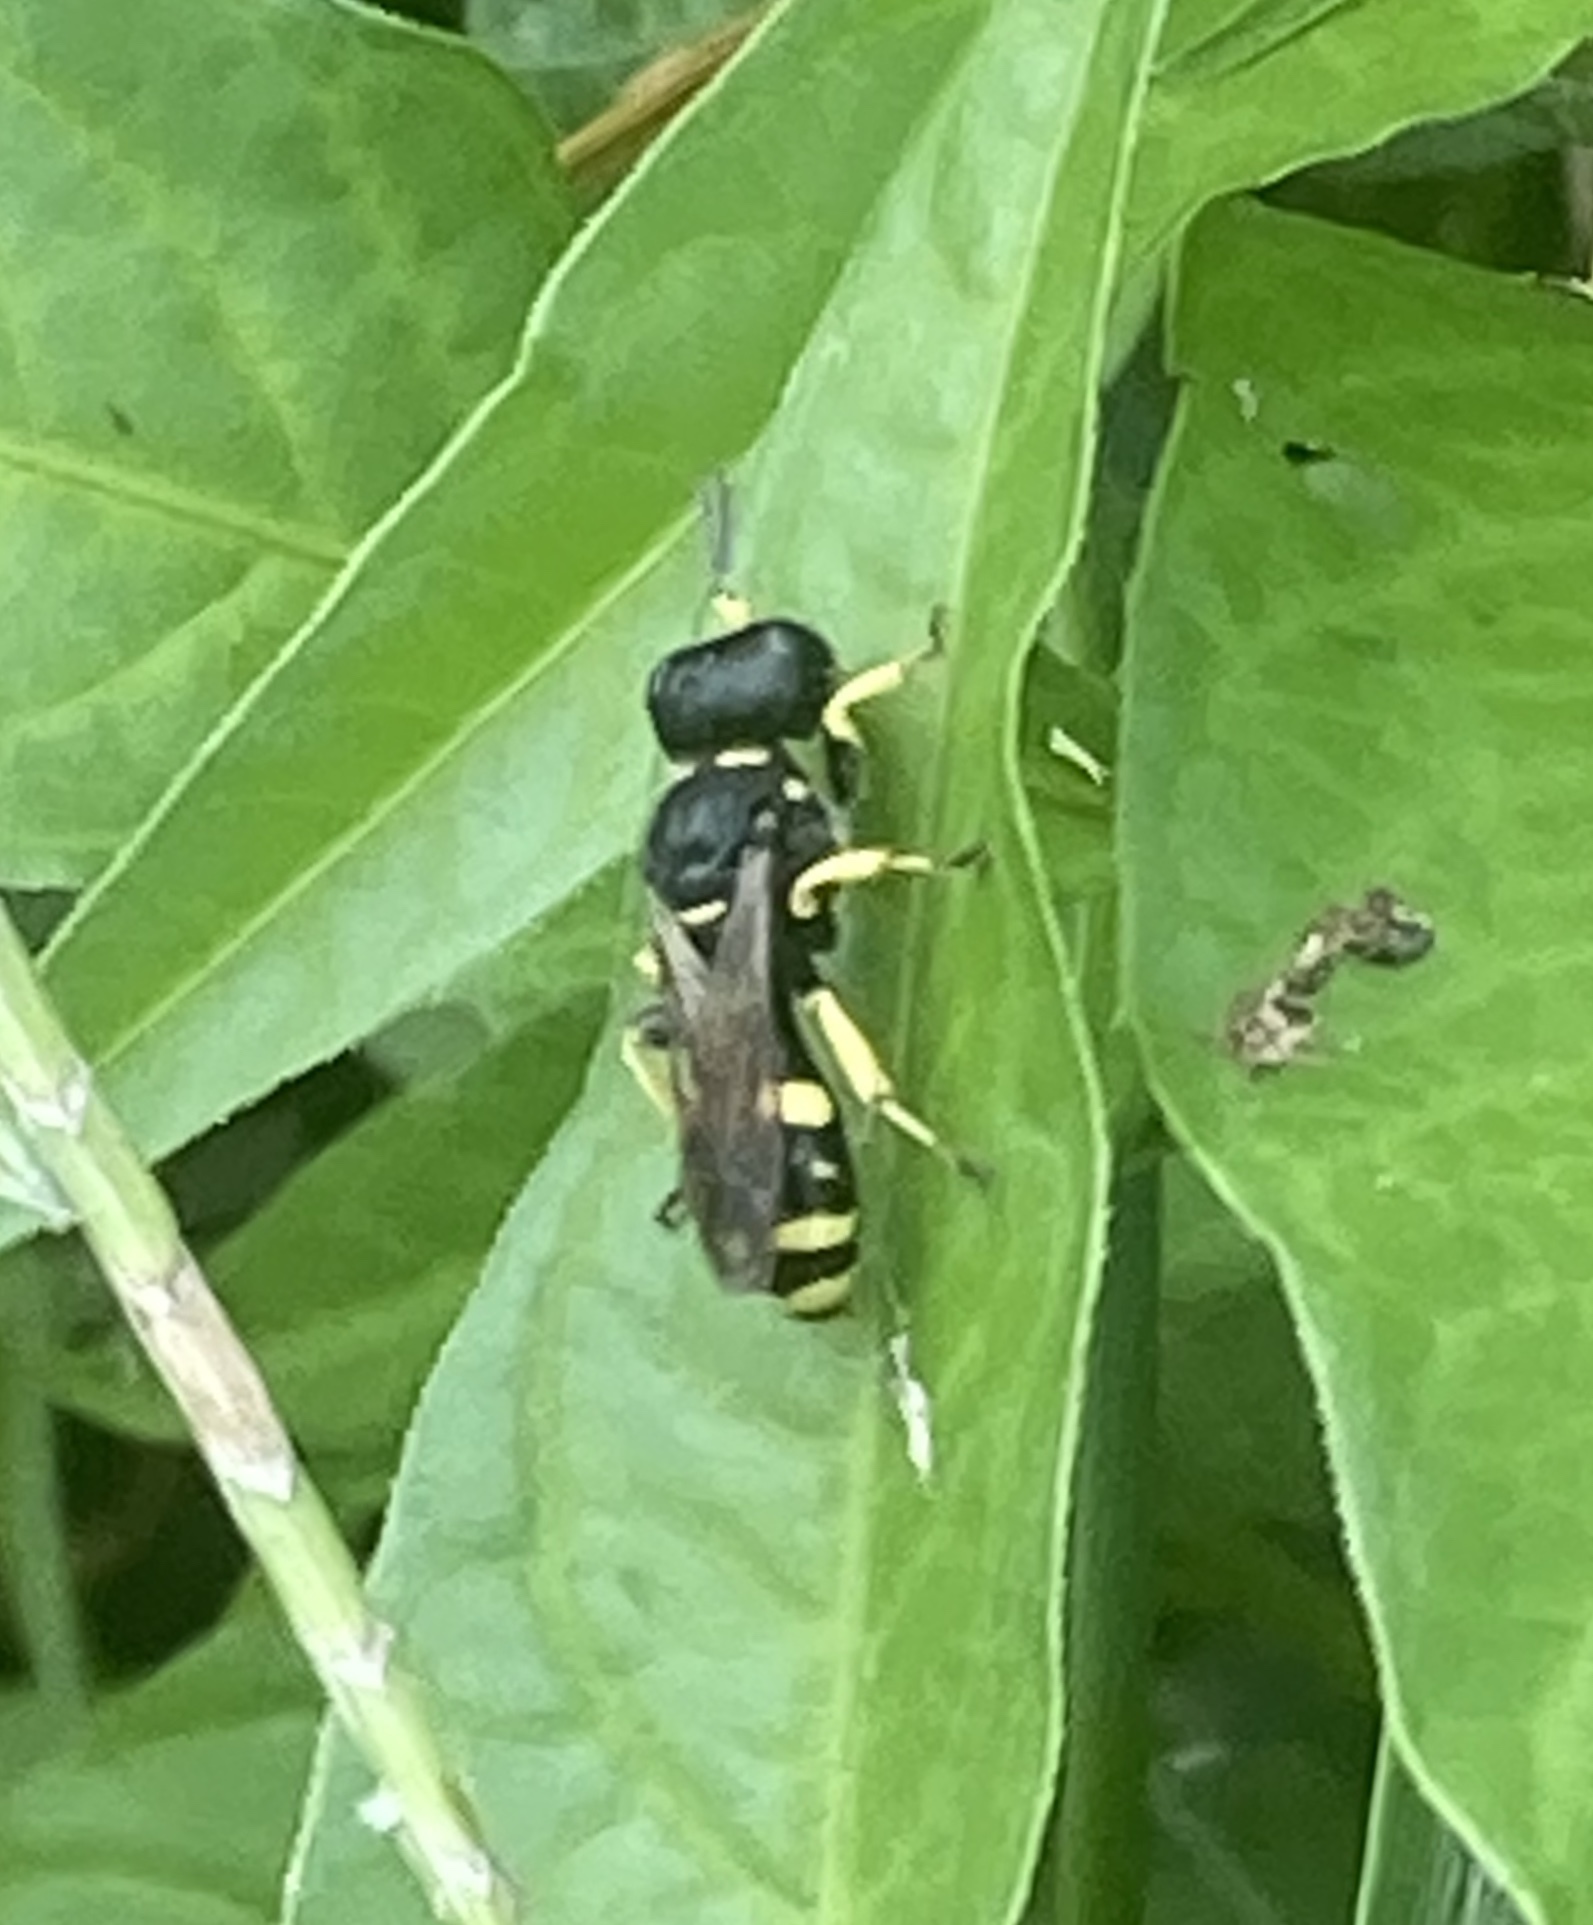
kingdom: Animalia
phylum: Arthropoda
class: Insecta
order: Hymenoptera
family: Crabronidae
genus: Ectemnius
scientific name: Ectemnius continuus
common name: Common ectemnius
